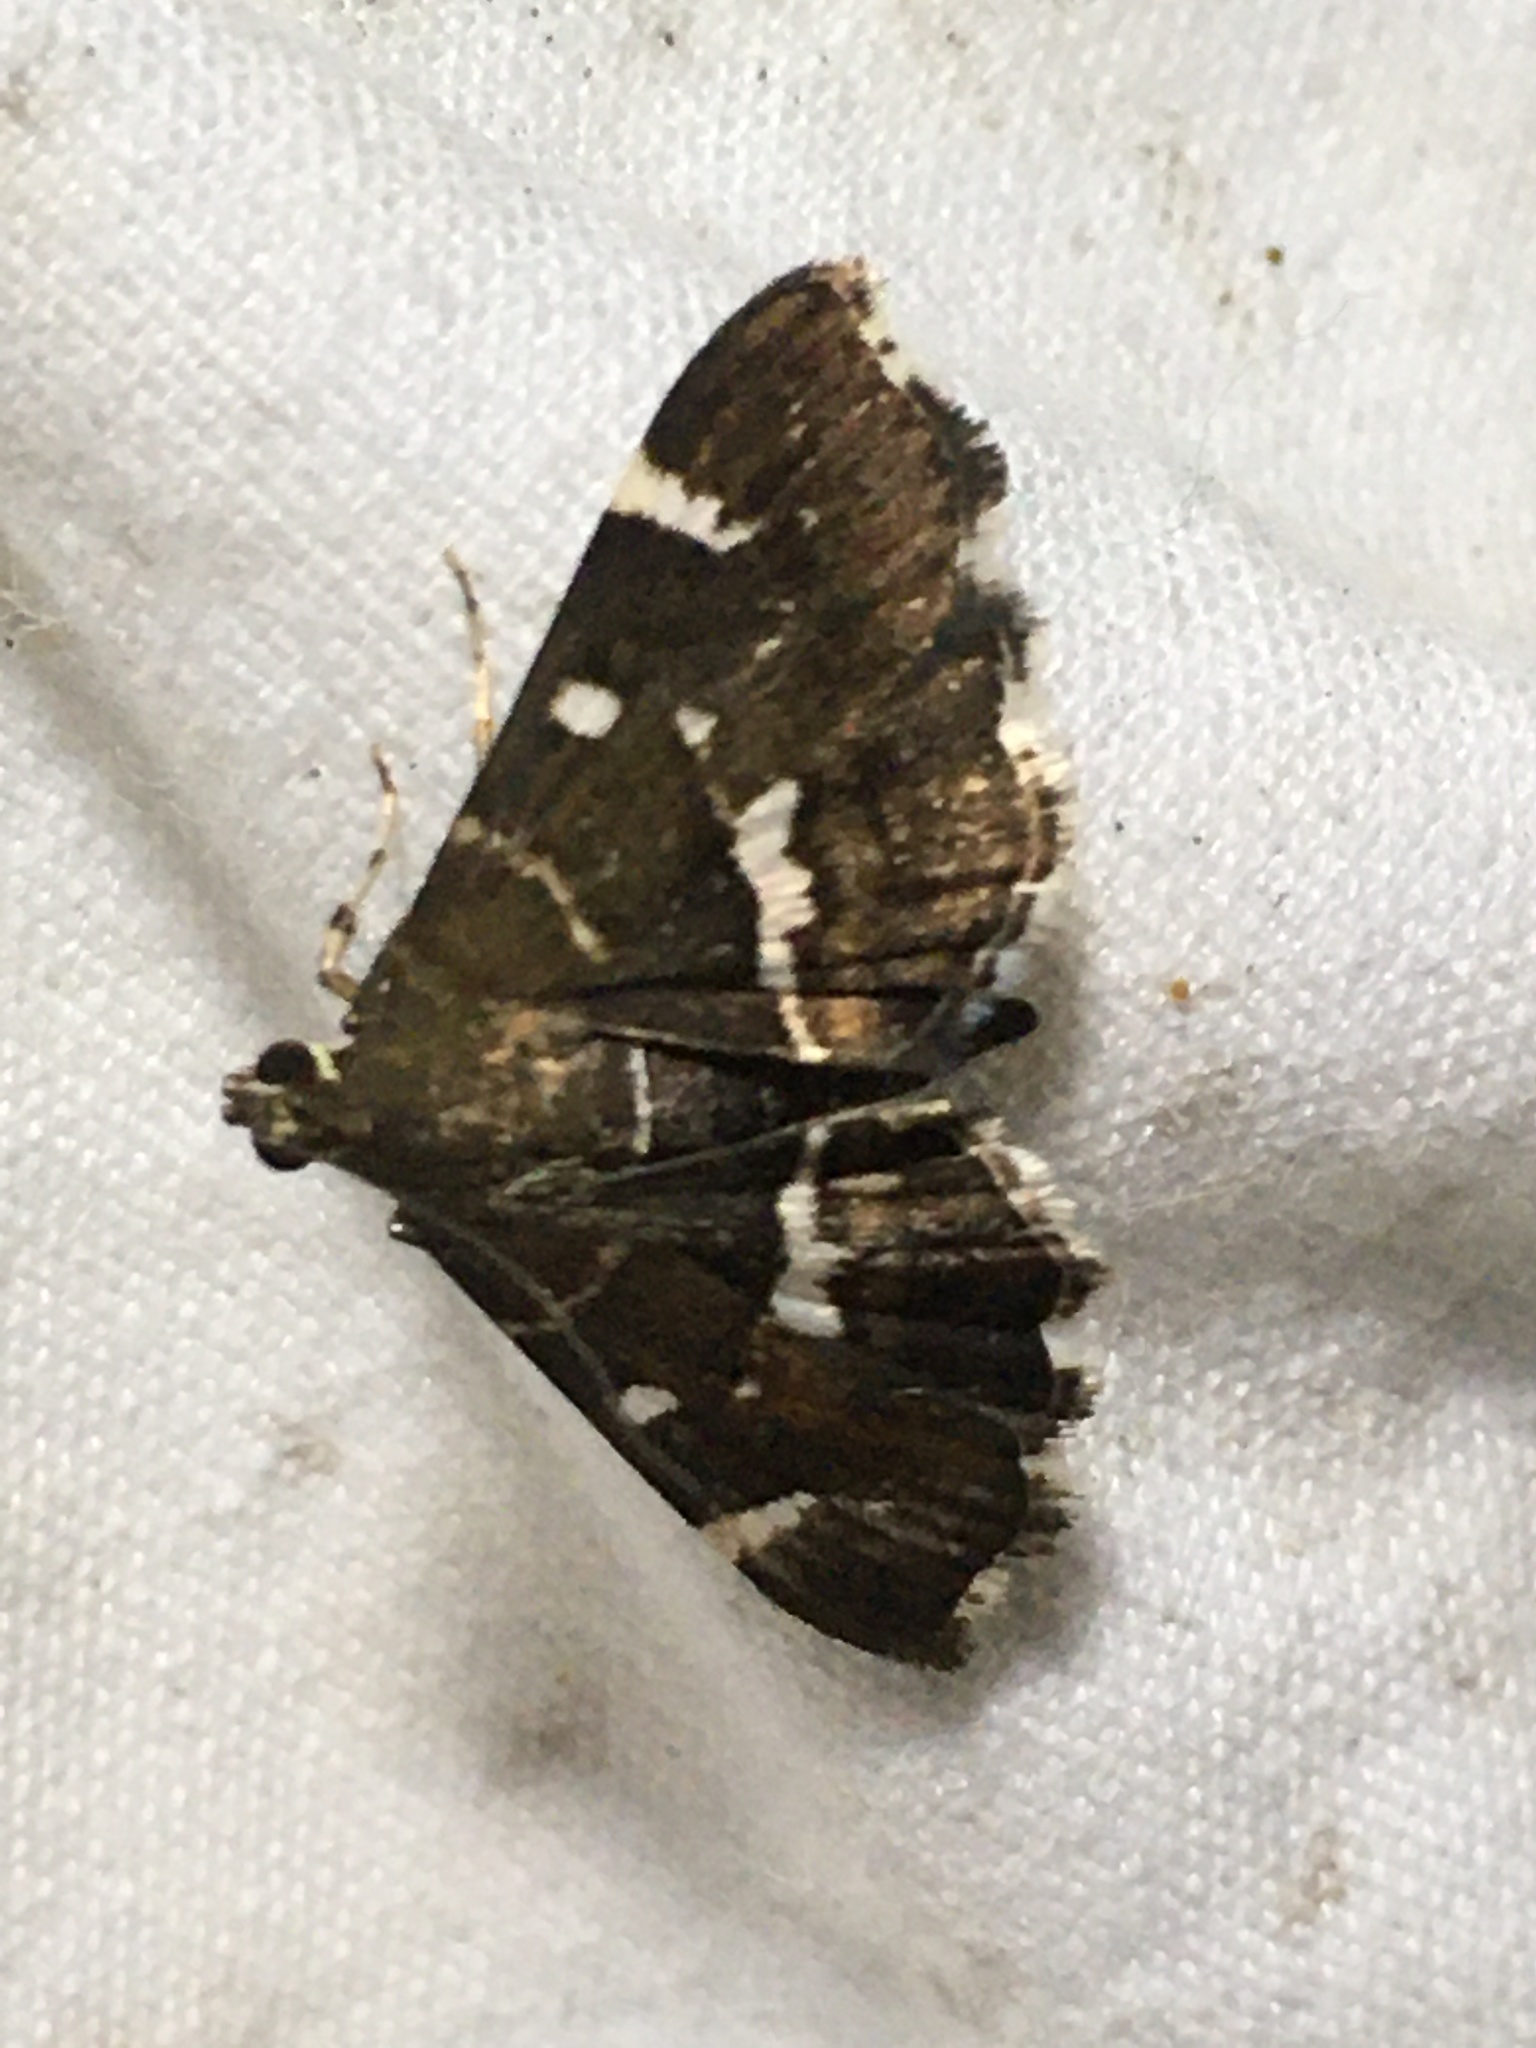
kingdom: Animalia
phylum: Arthropoda
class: Insecta
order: Lepidoptera
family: Crambidae
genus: Hymenia
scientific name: Hymenia perspectalis
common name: Spotted beet webworm
